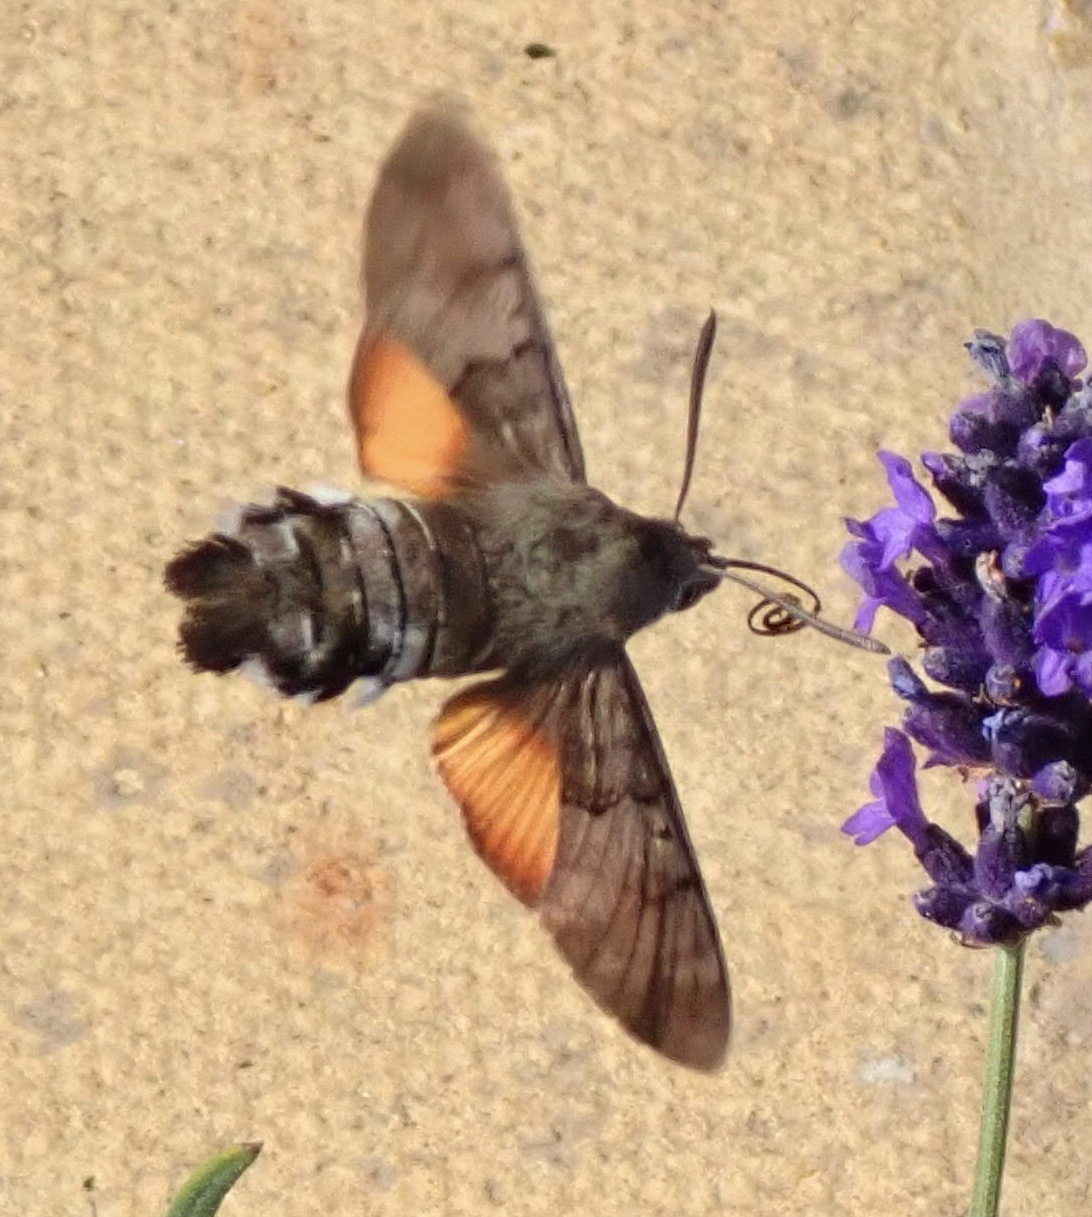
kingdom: Animalia
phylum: Arthropoda
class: Insecta
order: Lepidoptera
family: Sphingidae
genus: Macroglossum
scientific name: Macroglossum stellatarum
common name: Humming-bird hawk-moth
